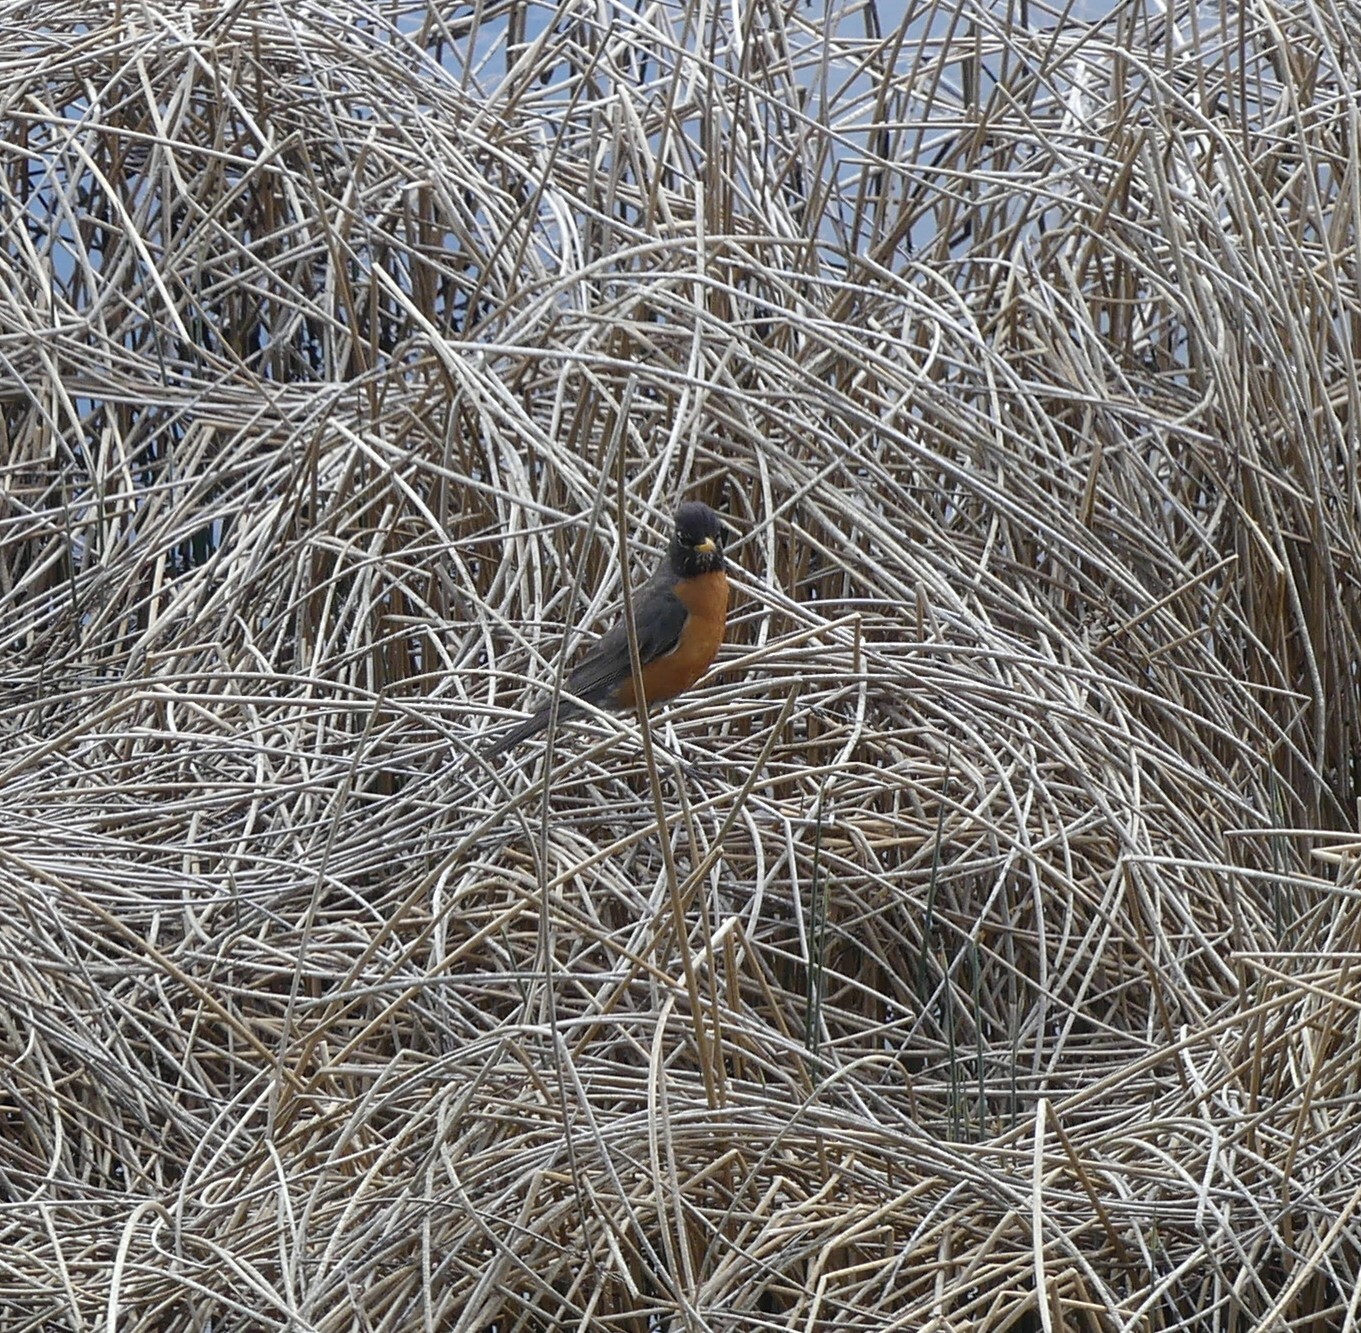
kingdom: Animalia
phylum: Chordata
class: Aves
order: Passeriformes
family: Turdidae
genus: Turdus
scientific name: Turdus migratorius
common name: American robin
